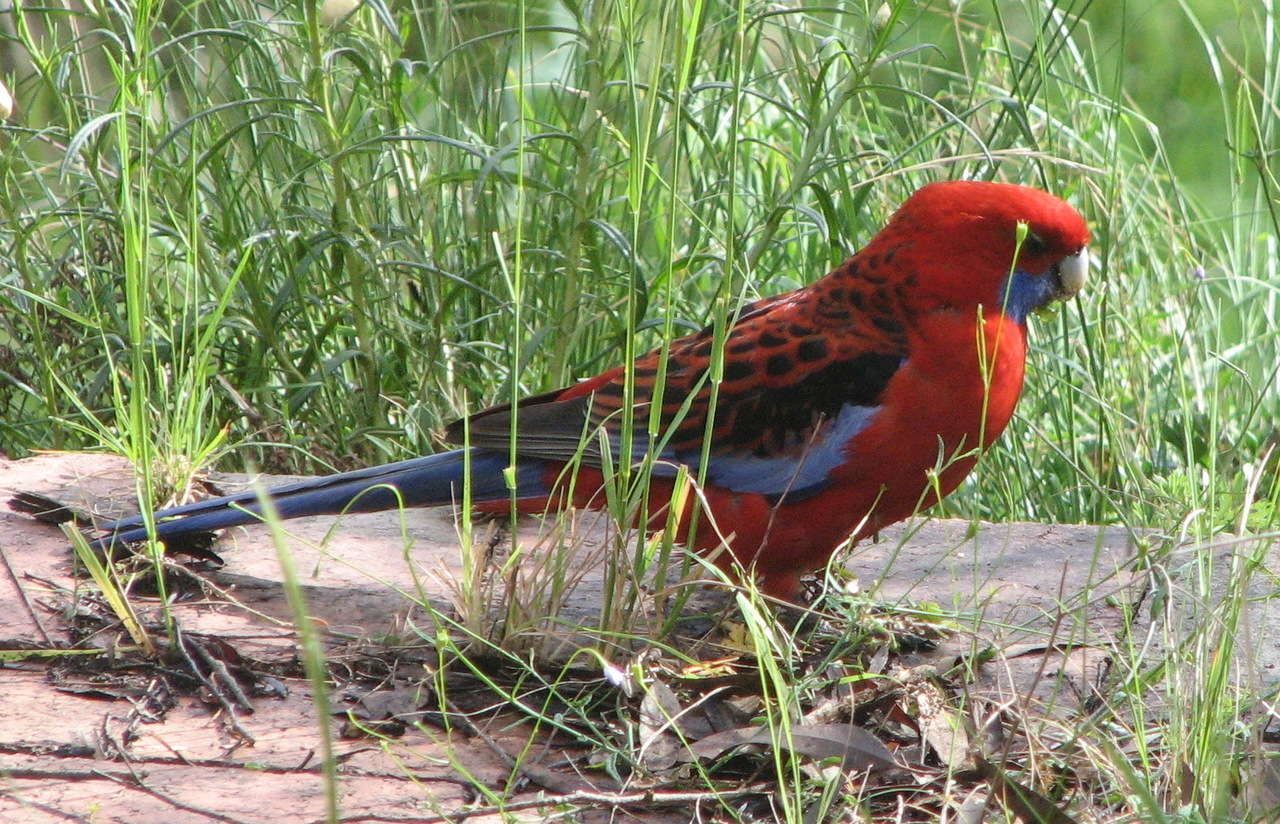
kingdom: Animalia
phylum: Chordata
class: Aves
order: Psittaciformes
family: Psittacidae
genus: Platycercus
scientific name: Platycercus elegans
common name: Crimson rosella
